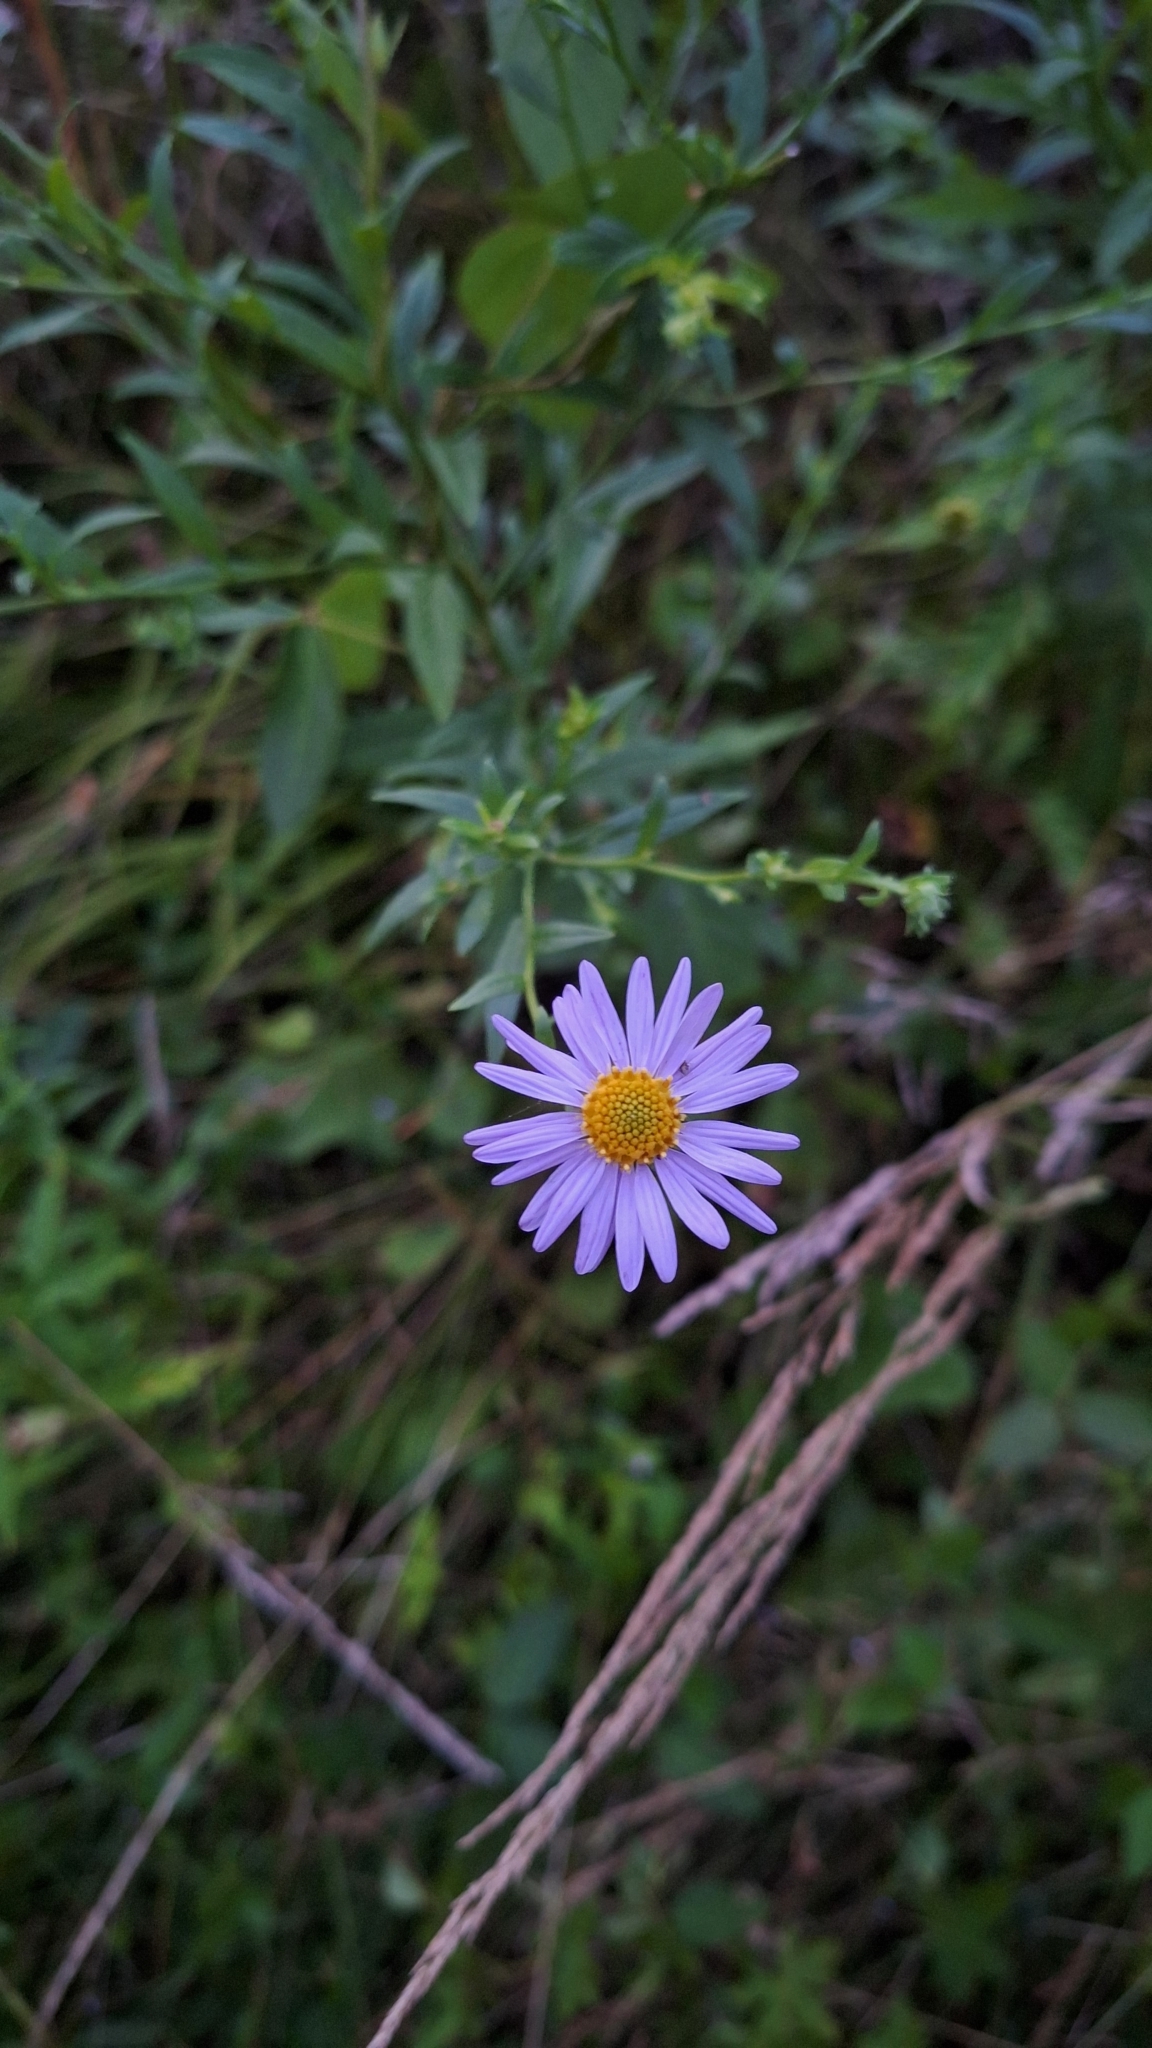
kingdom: Plantae
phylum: Tracheophyta
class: Magnoliopsida
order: Asterales
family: Asteraceae
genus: Kalimeris
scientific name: Kalimeris incisa
